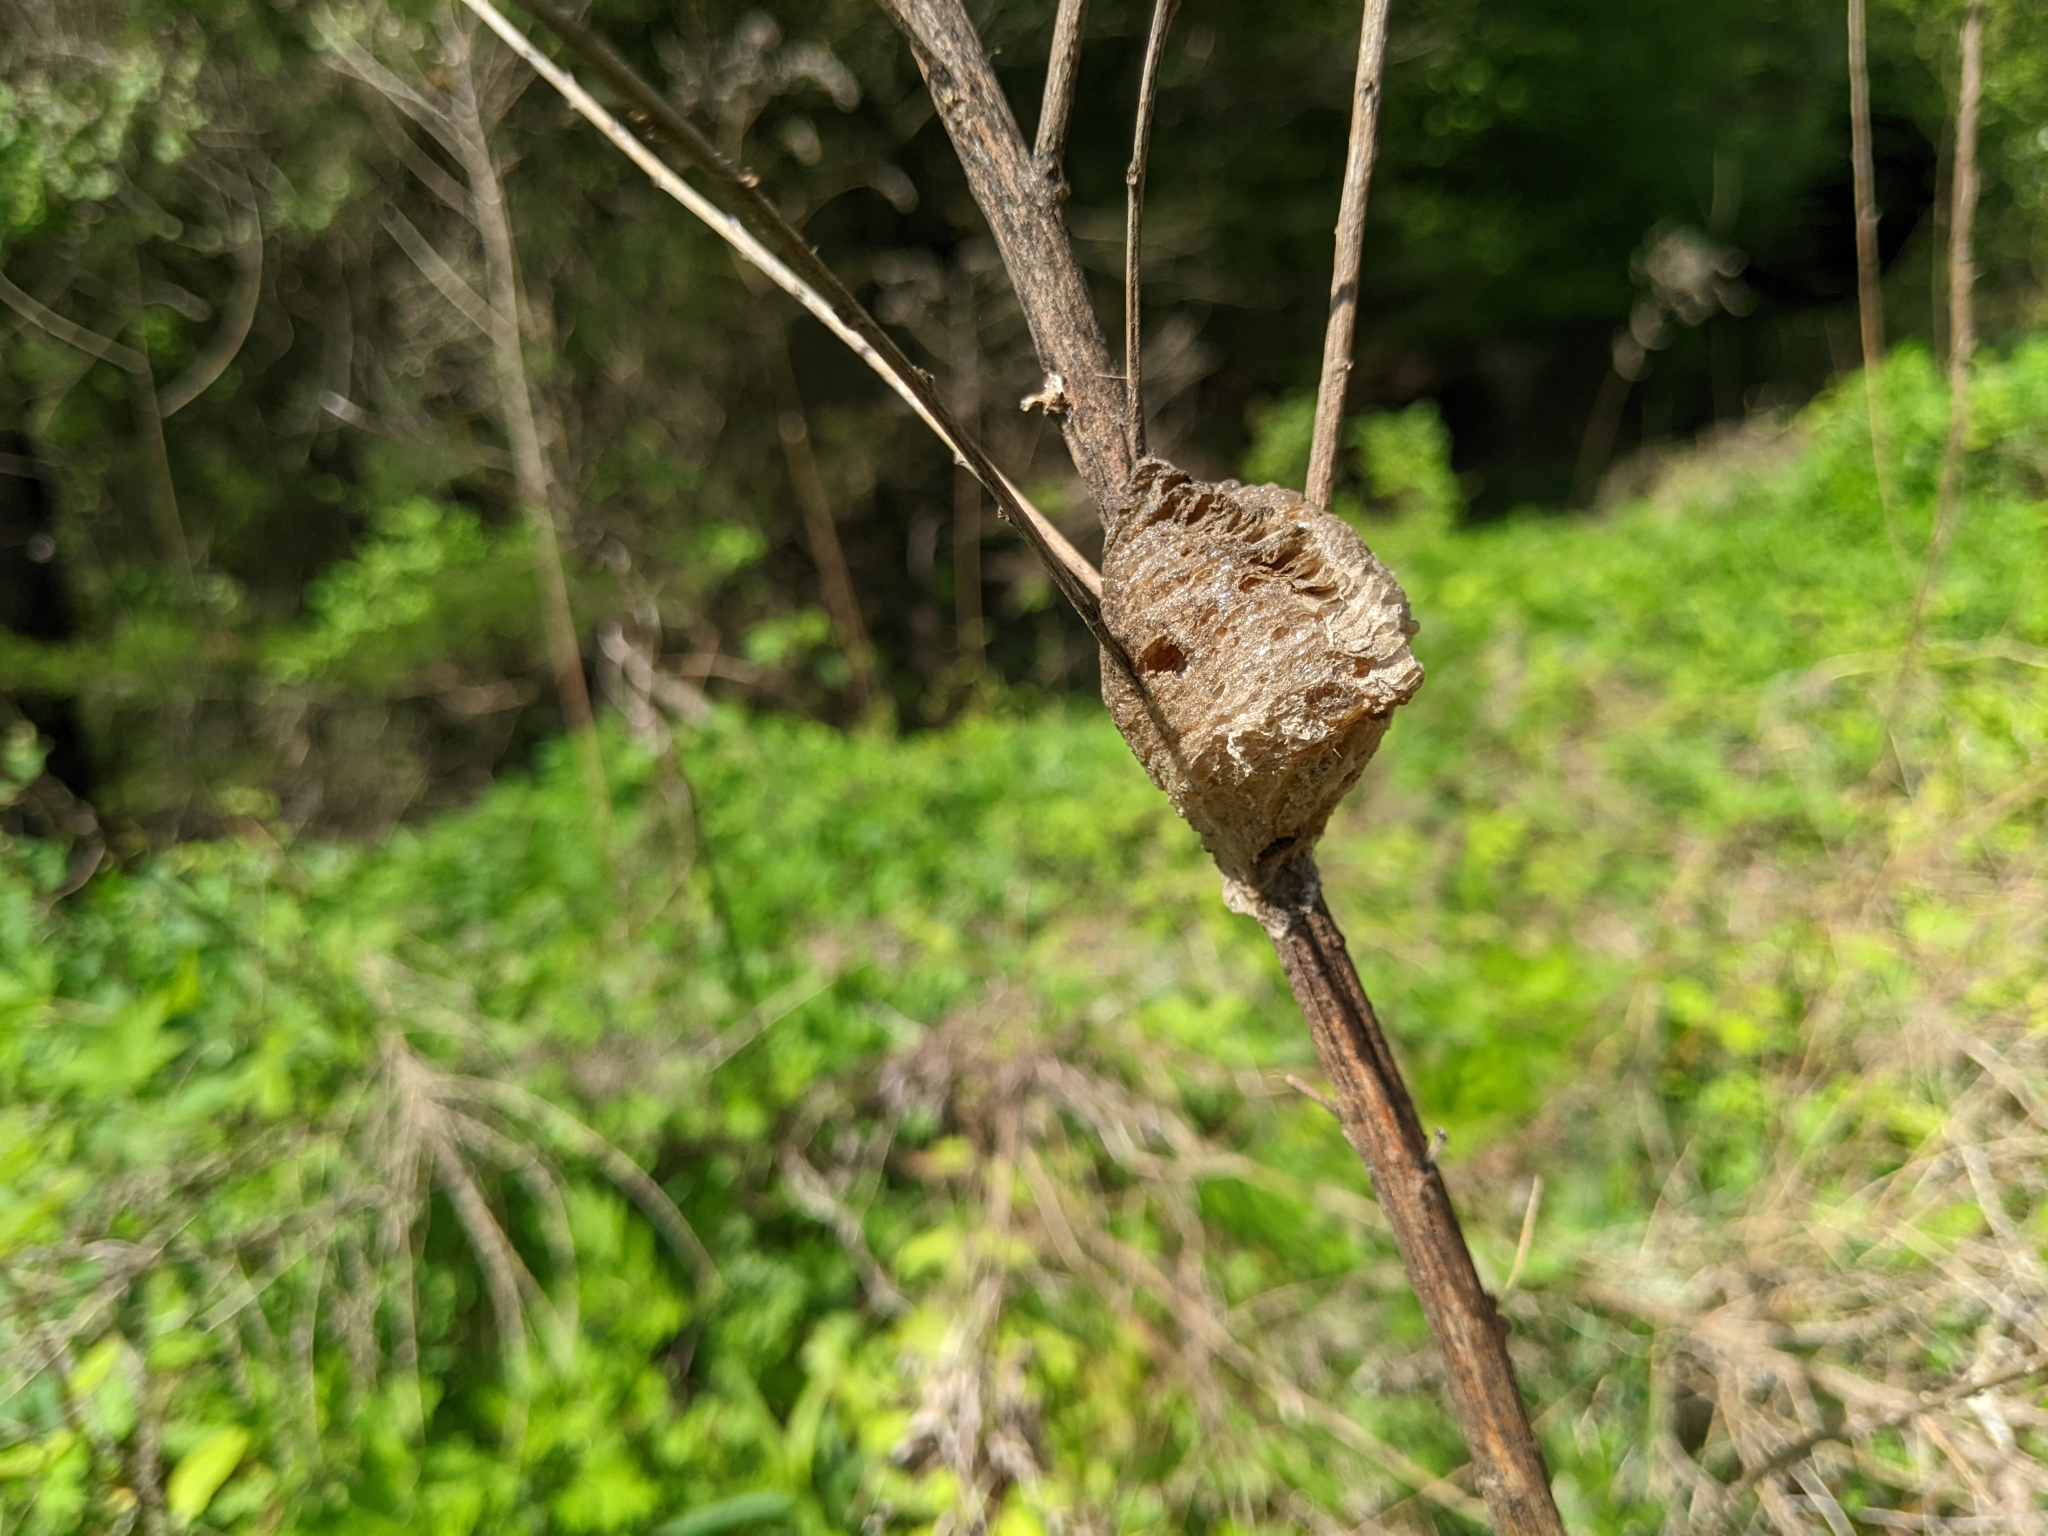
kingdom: Animalia
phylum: Arthropoda
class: Insecta
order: Mantodea
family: Mantidae
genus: Tenodera
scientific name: Tenodera sinensis
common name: Chinese mantis
